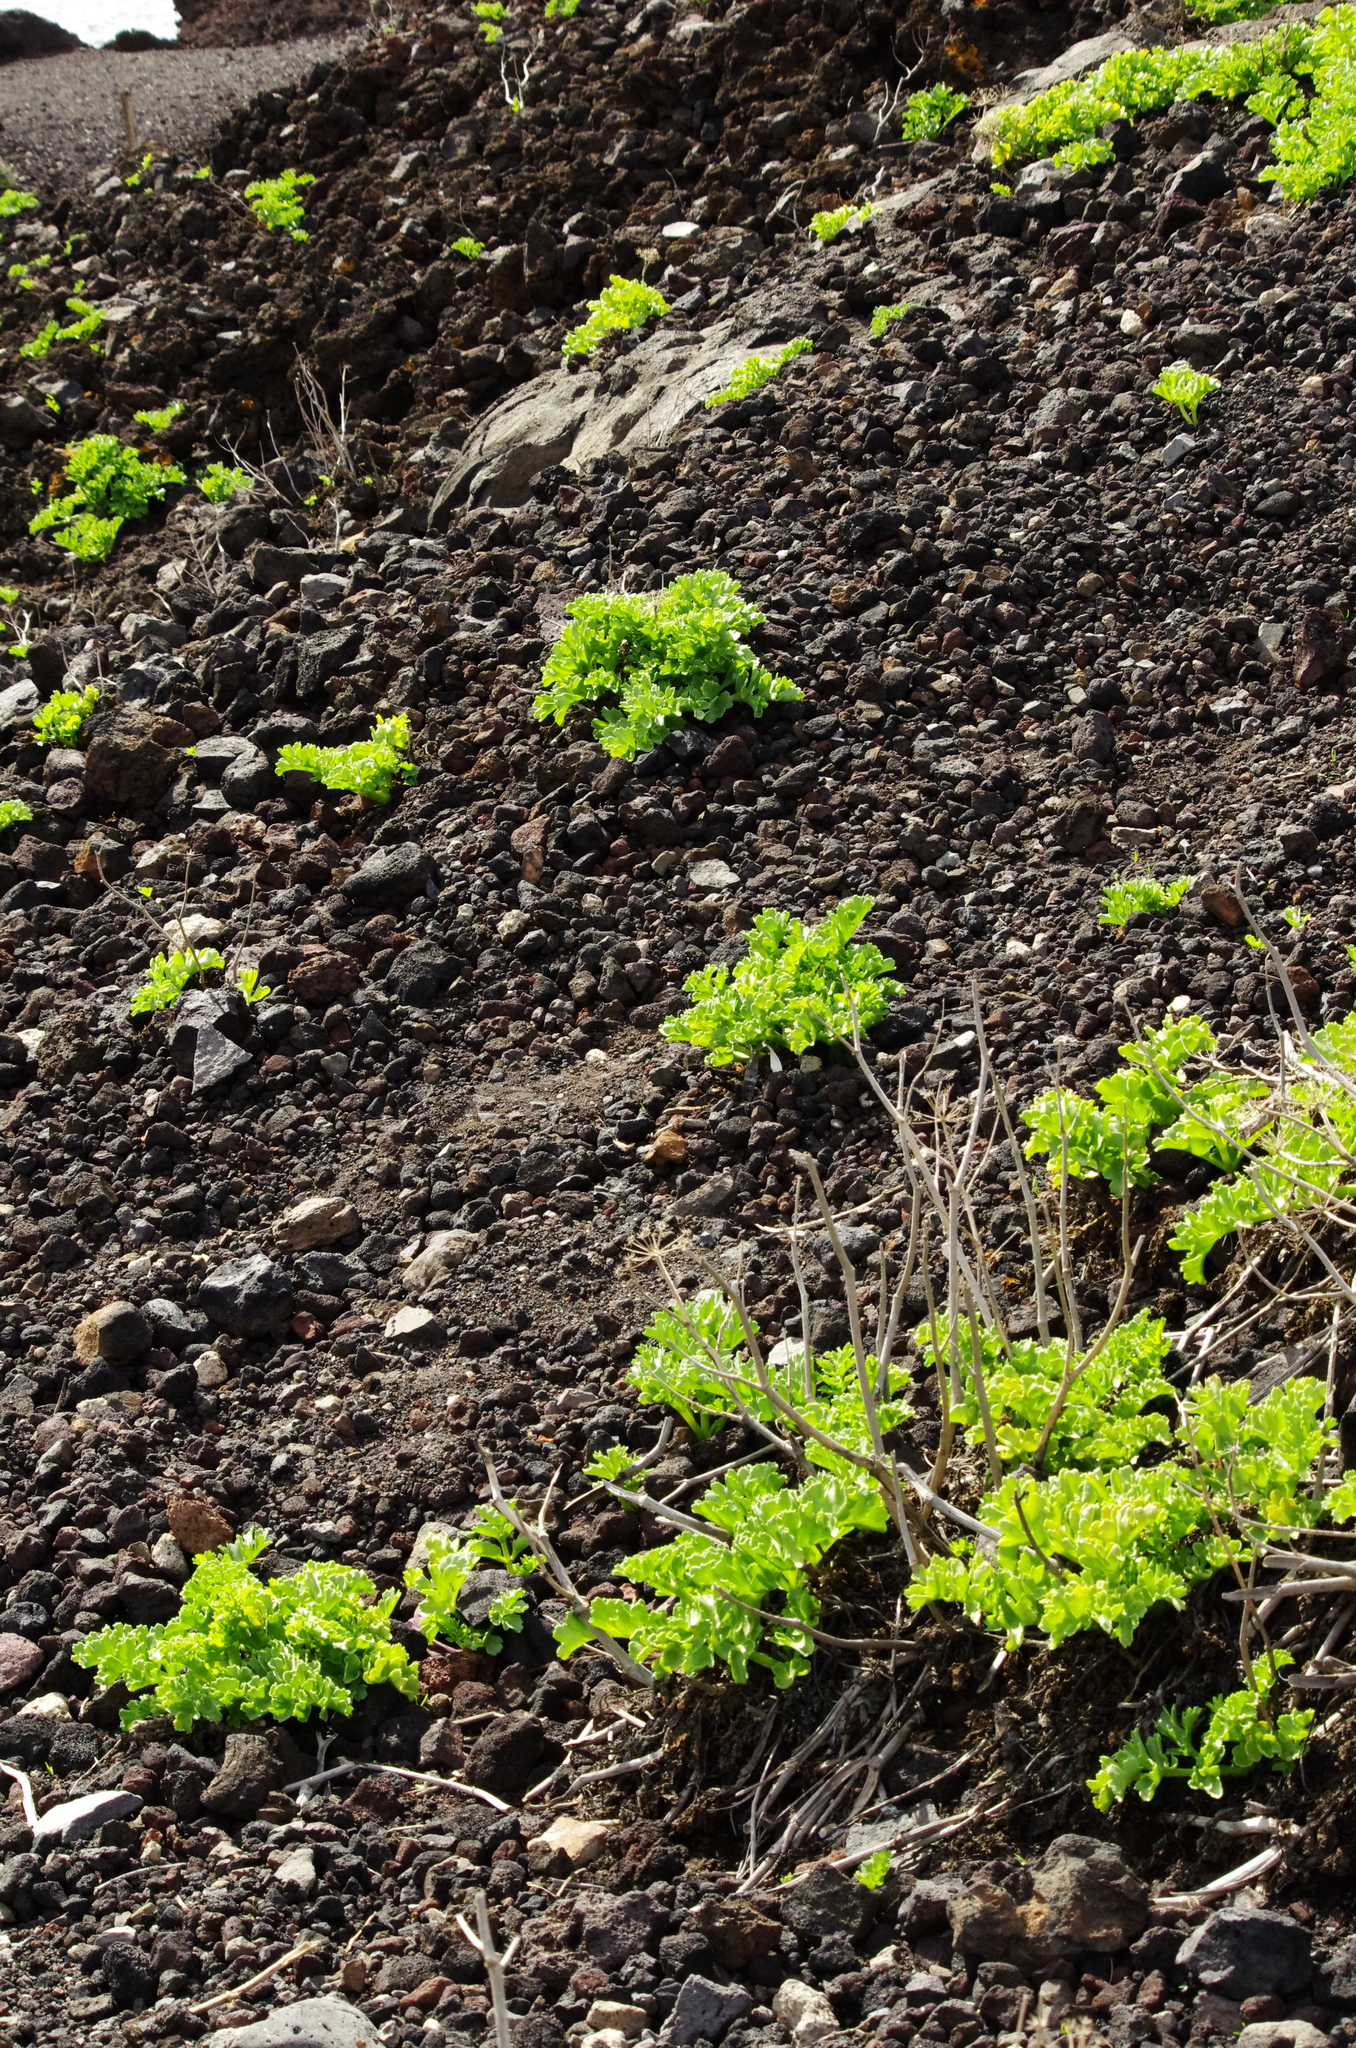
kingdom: Plantae
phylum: Tracheophyta
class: Magnoliopsida
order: Apiales
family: Apiaceae
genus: Astydamia
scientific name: Astydamia latifolia
